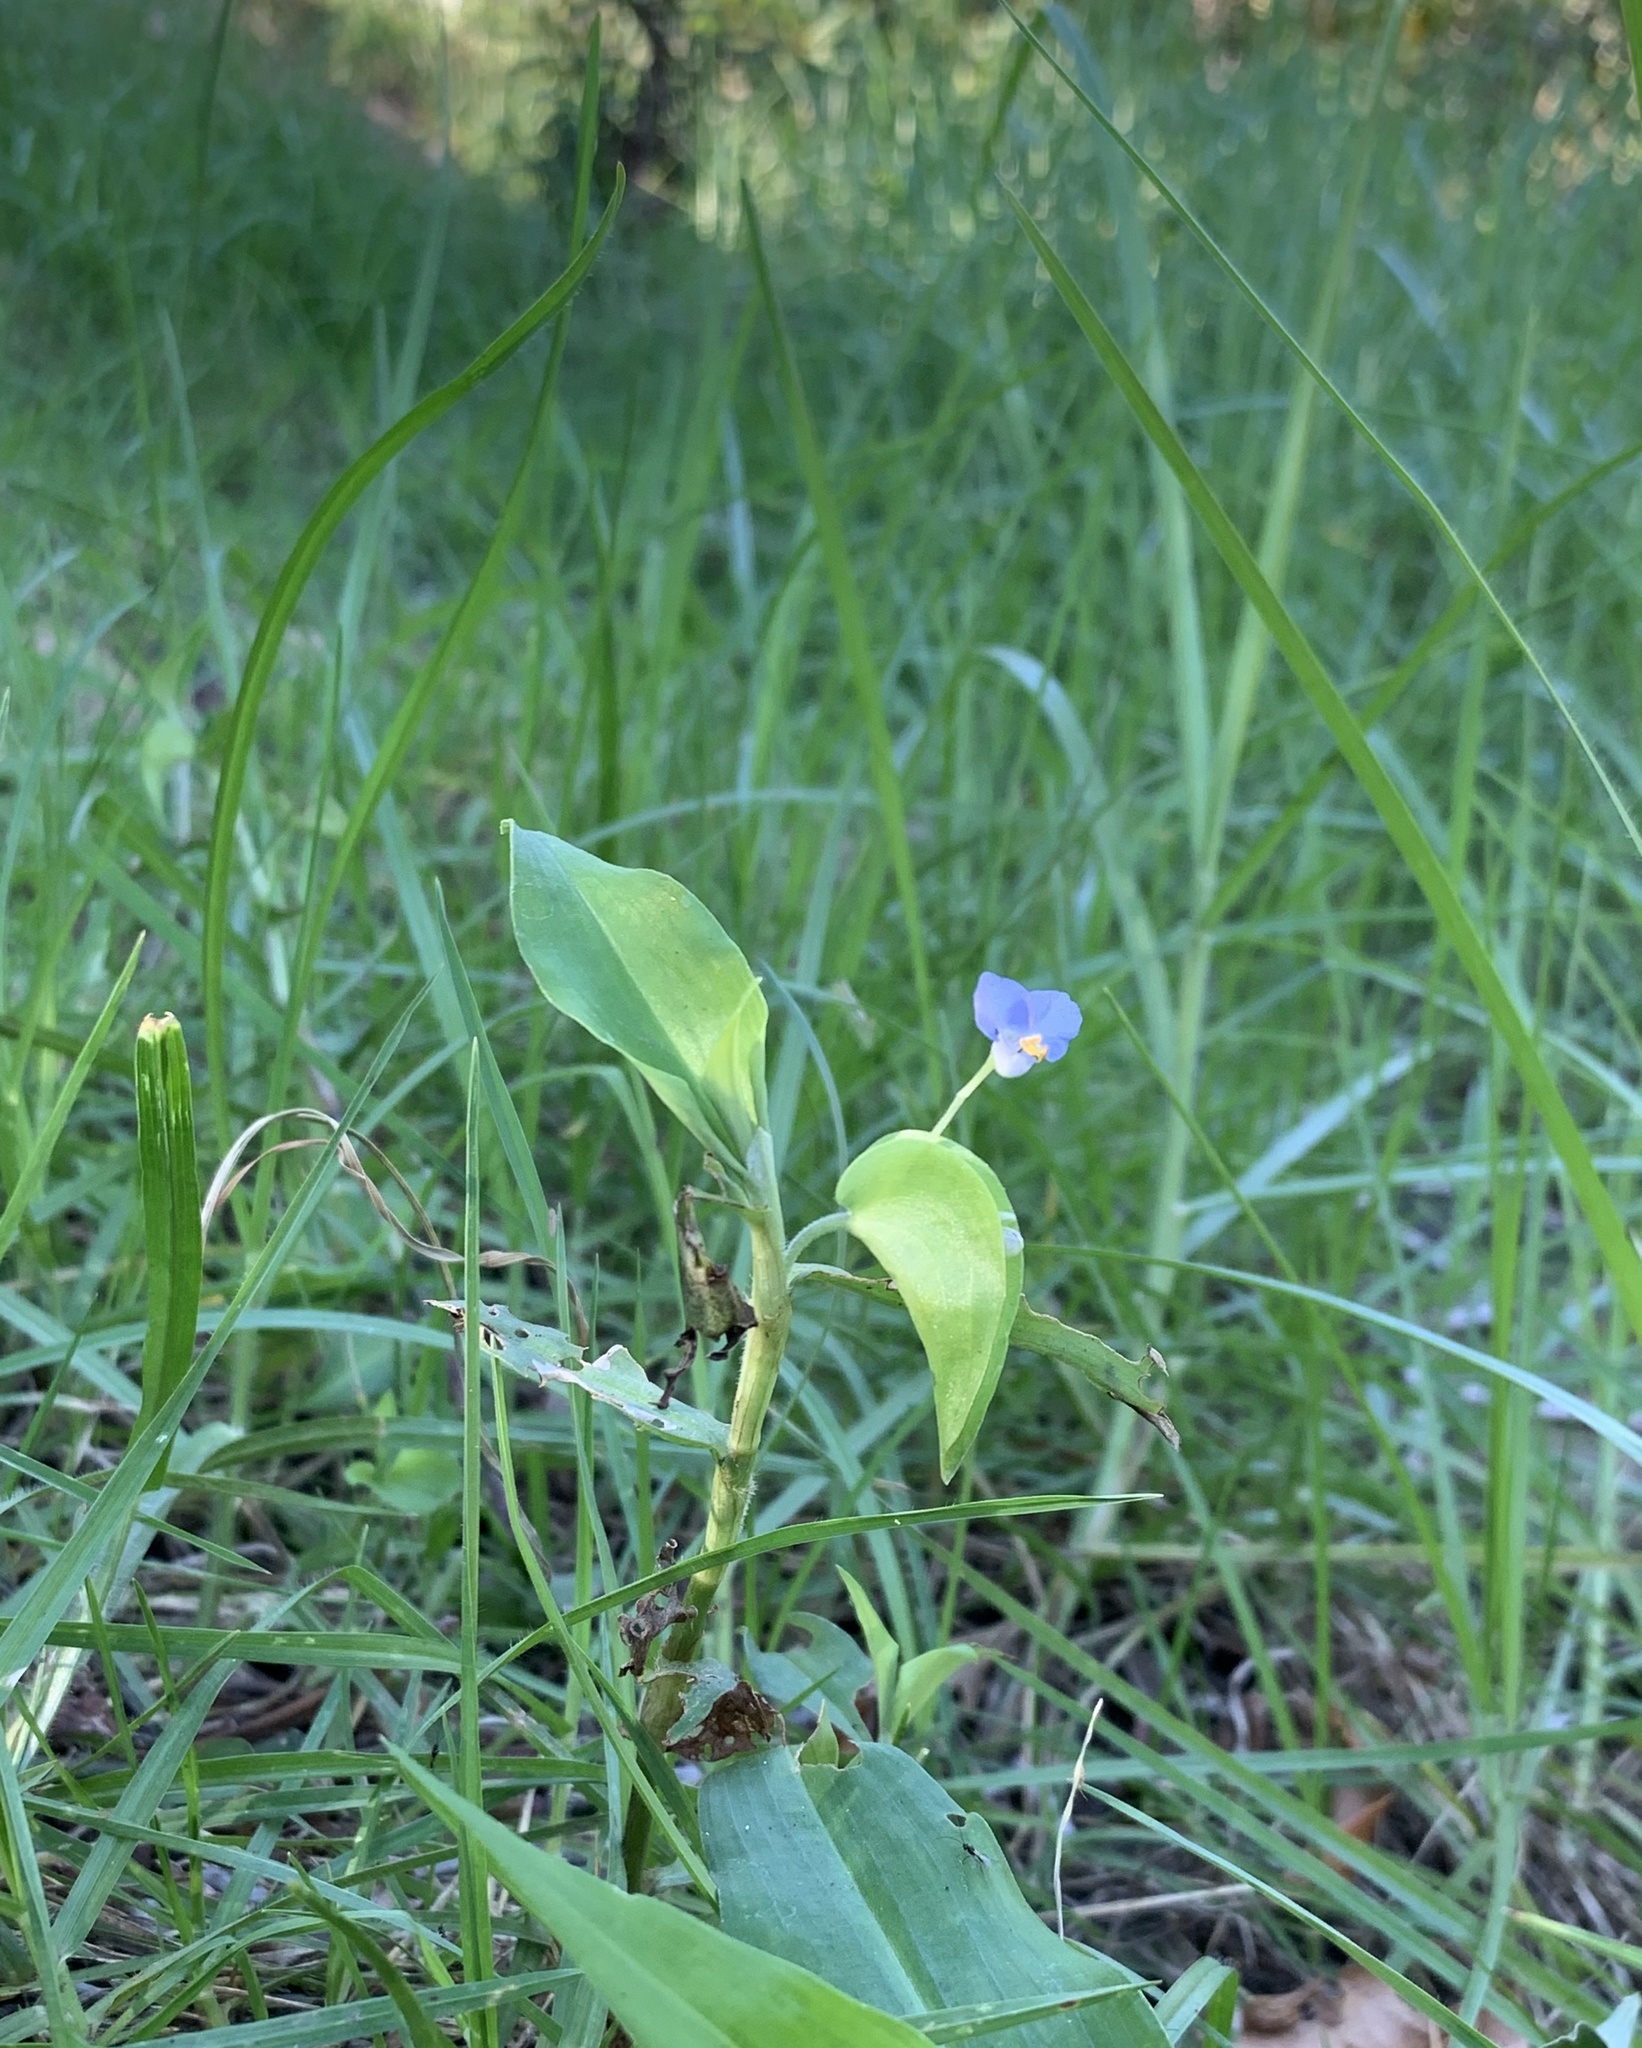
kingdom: Plantae
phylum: Tracheophyta
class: Liliopsida
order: Commelinales
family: Commelinaceae
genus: Commelina
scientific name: Commelina diffusa
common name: Climbing dayflower
